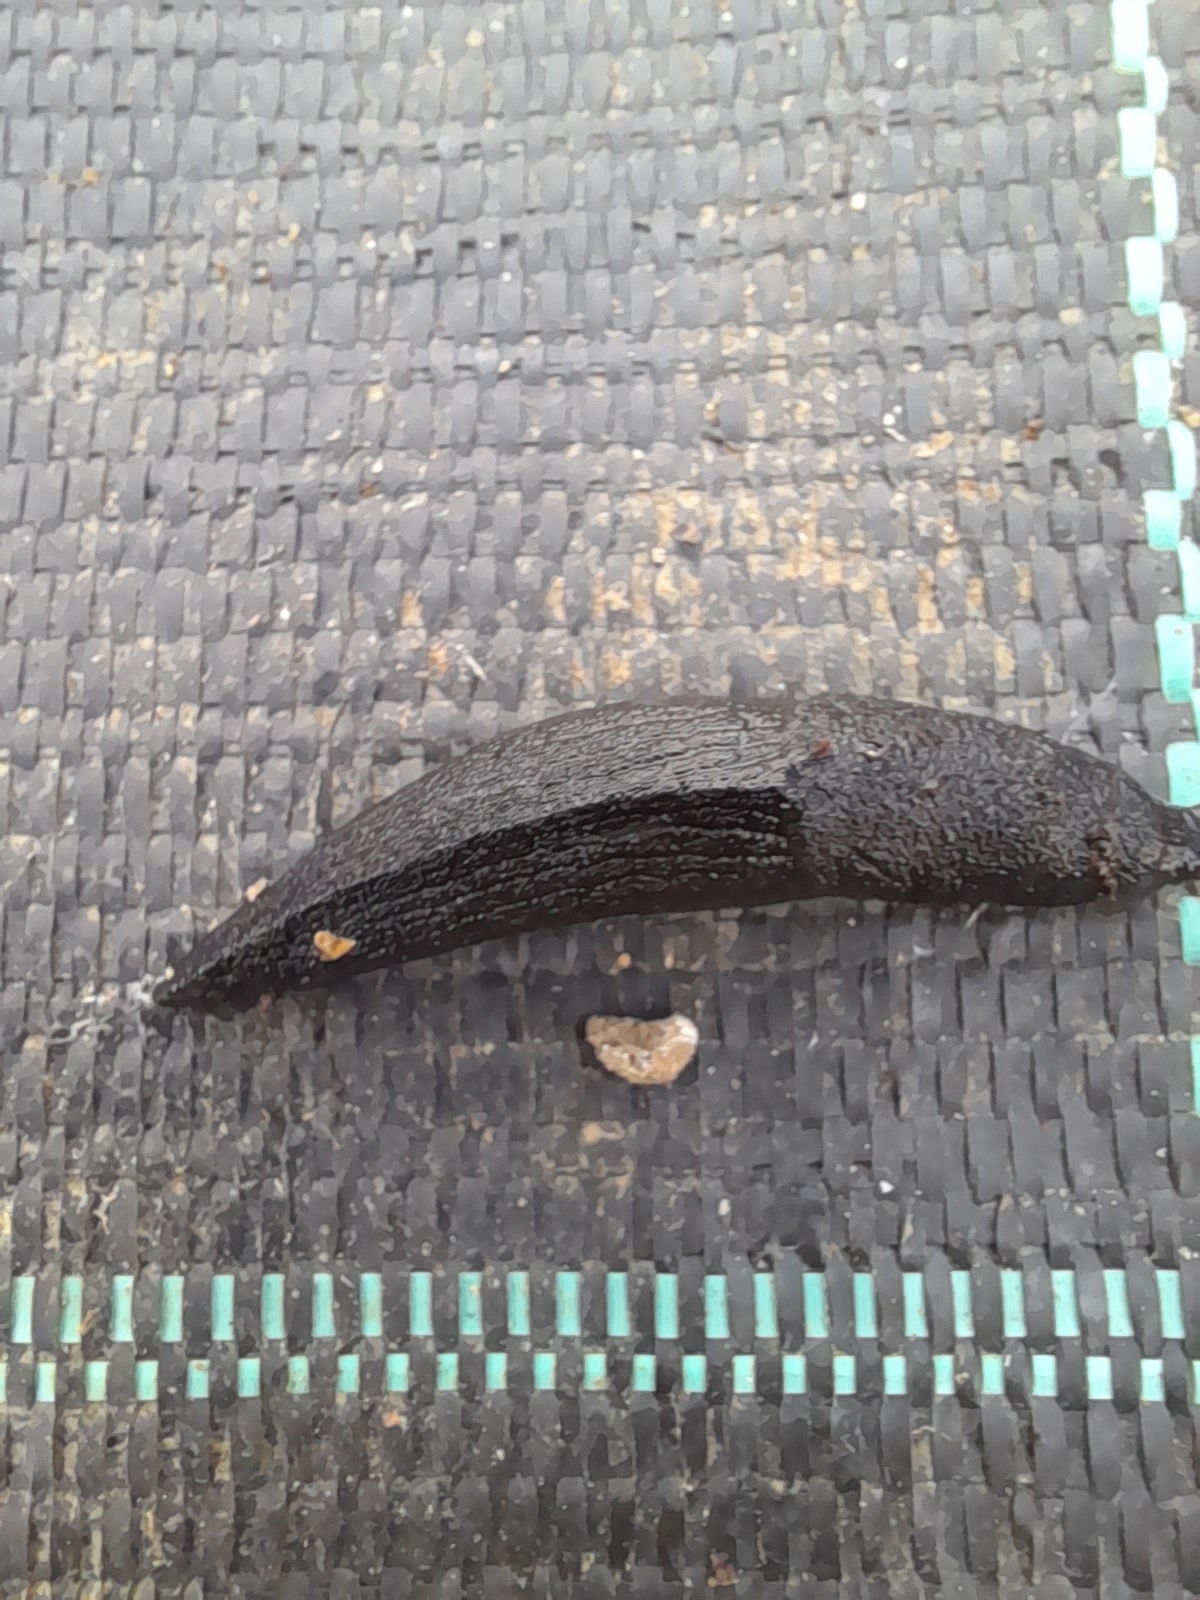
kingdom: Animalia
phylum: Mollusca
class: Gastropoda
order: Stylommatophora
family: Milacidae
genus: Milax
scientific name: Milax nigricans
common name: Black slug
